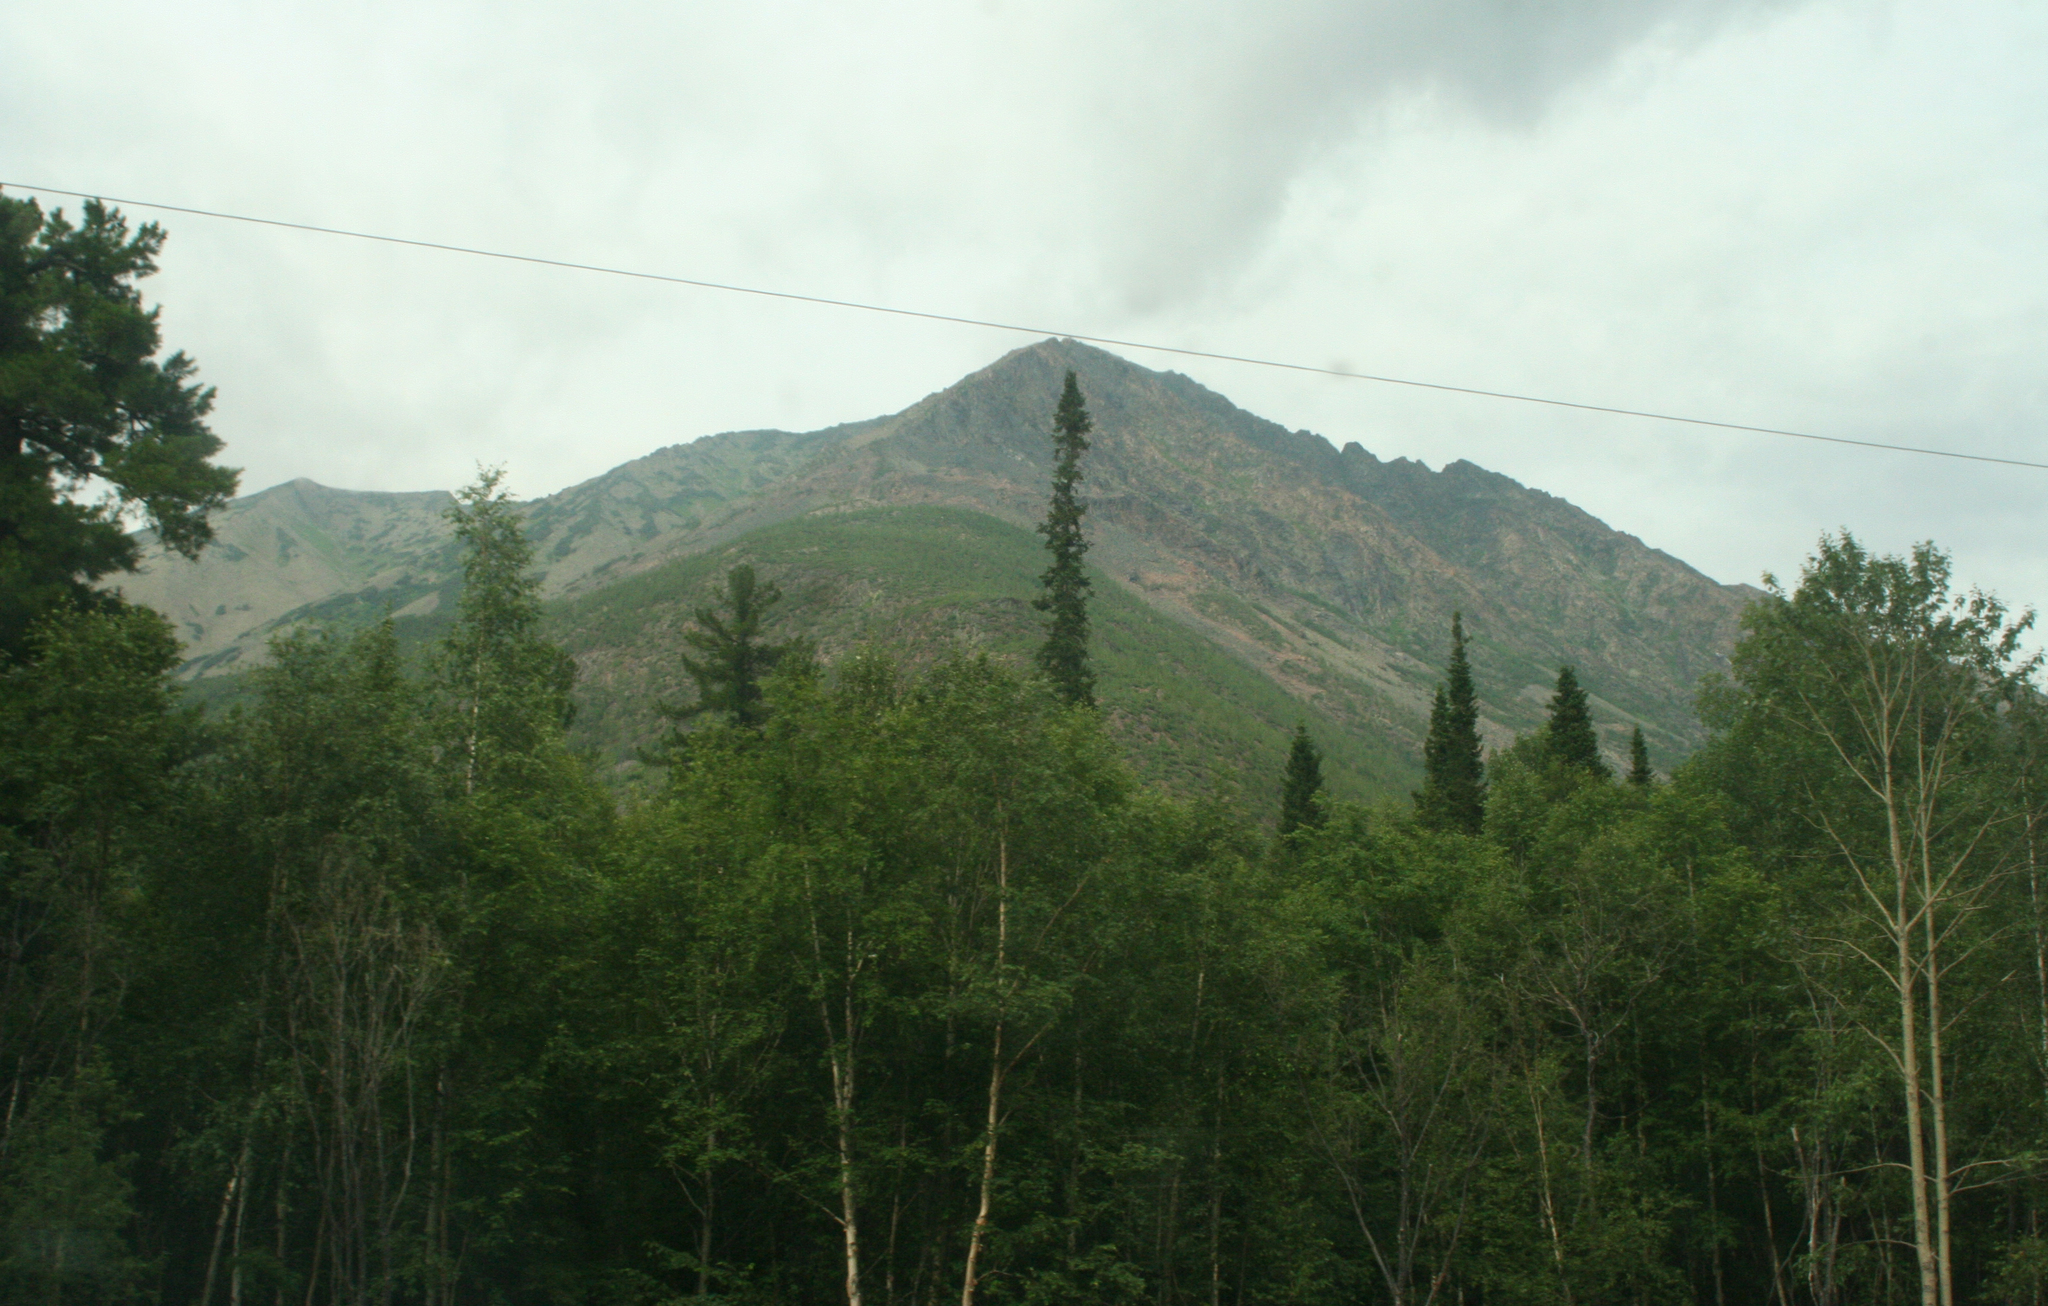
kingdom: Plantae
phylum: Tracheophyta
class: Pinopsida
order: Pinales
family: Pinaceae
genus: Abies
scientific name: Abies sibirica
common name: Siberian fir
